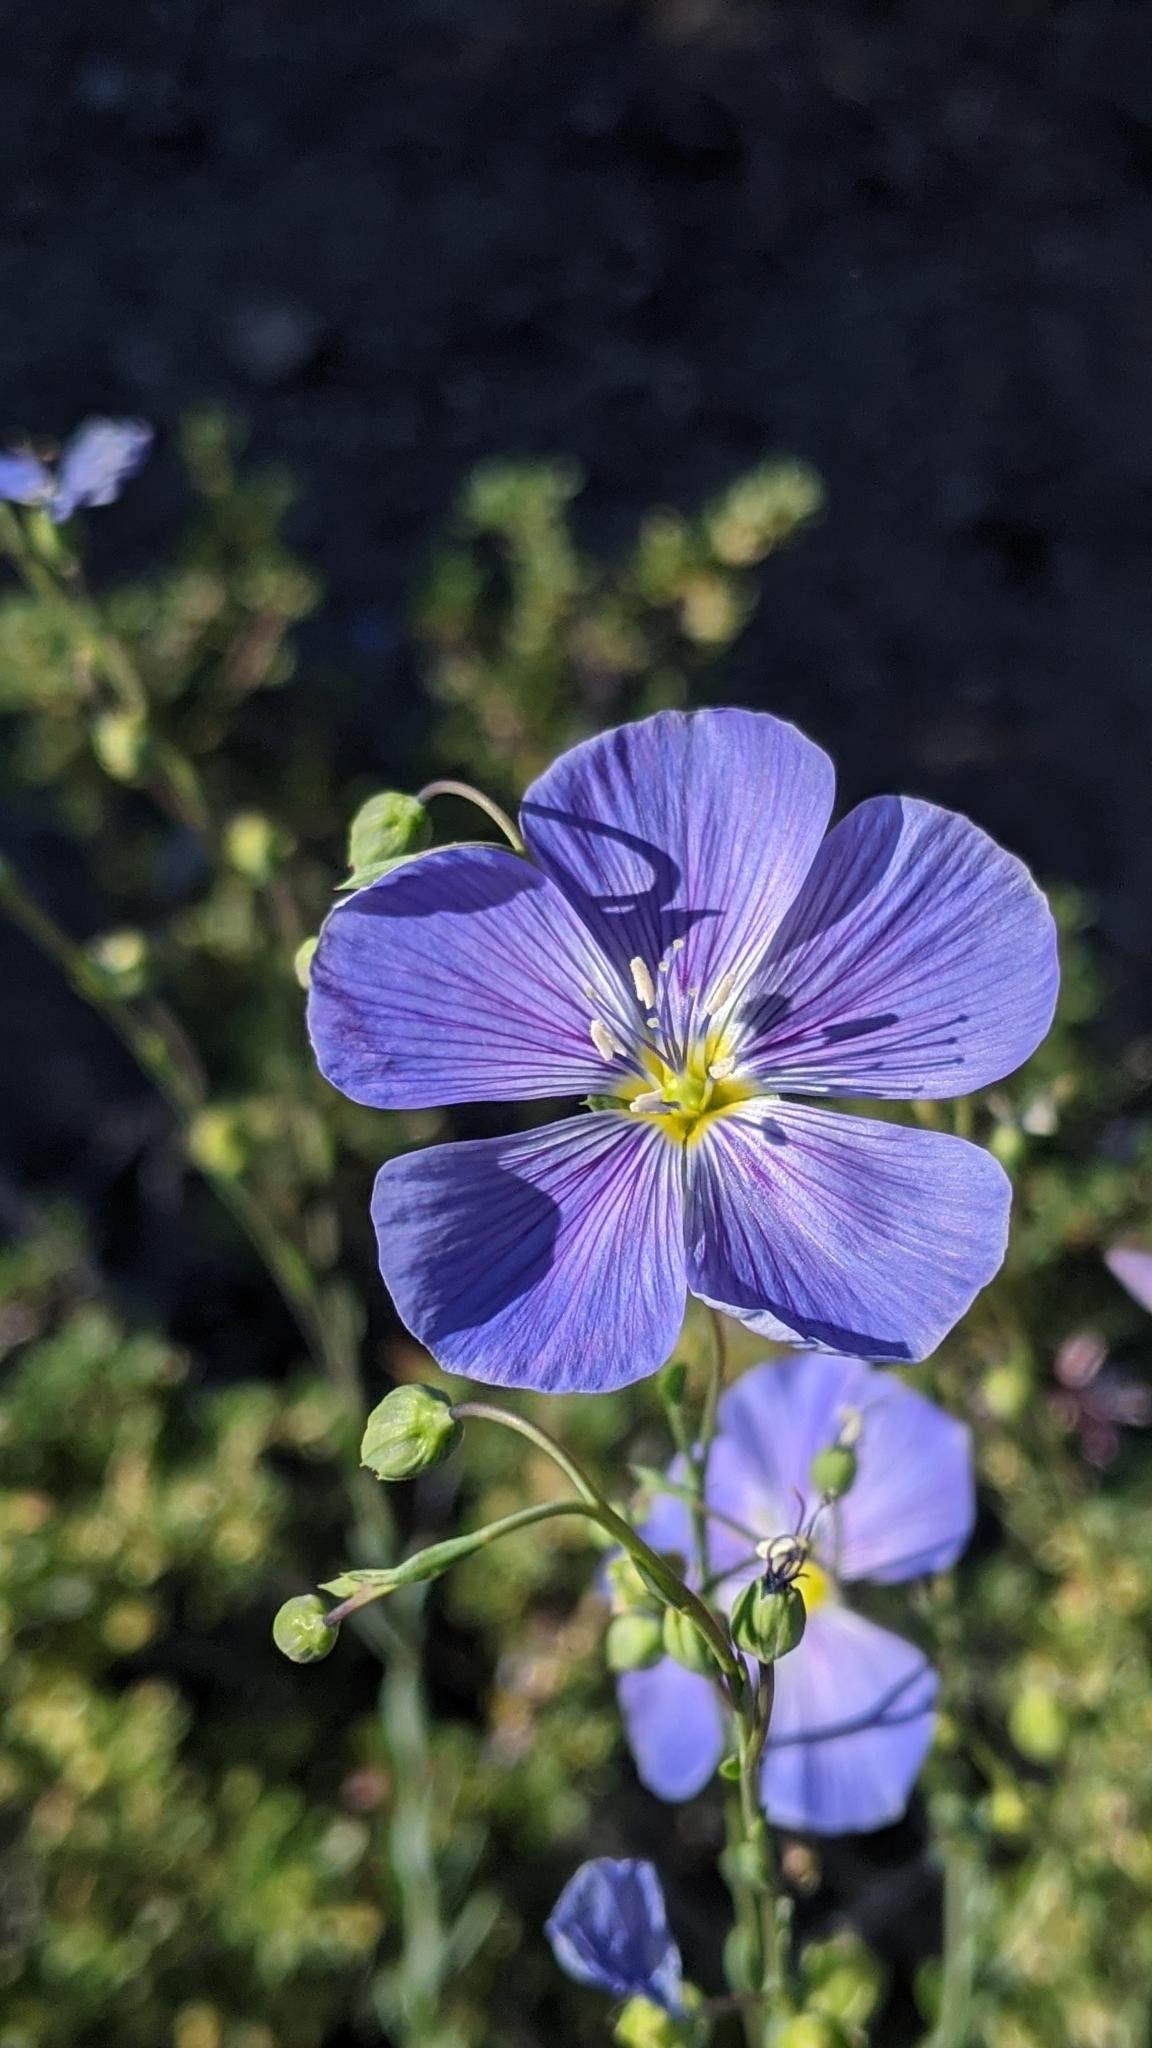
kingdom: Plantae
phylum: Tracheophyta
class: Magnoliopsida
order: Malpighiales
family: Linaceae
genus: Linum
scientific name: Linum lewisii
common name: Prairie flax
